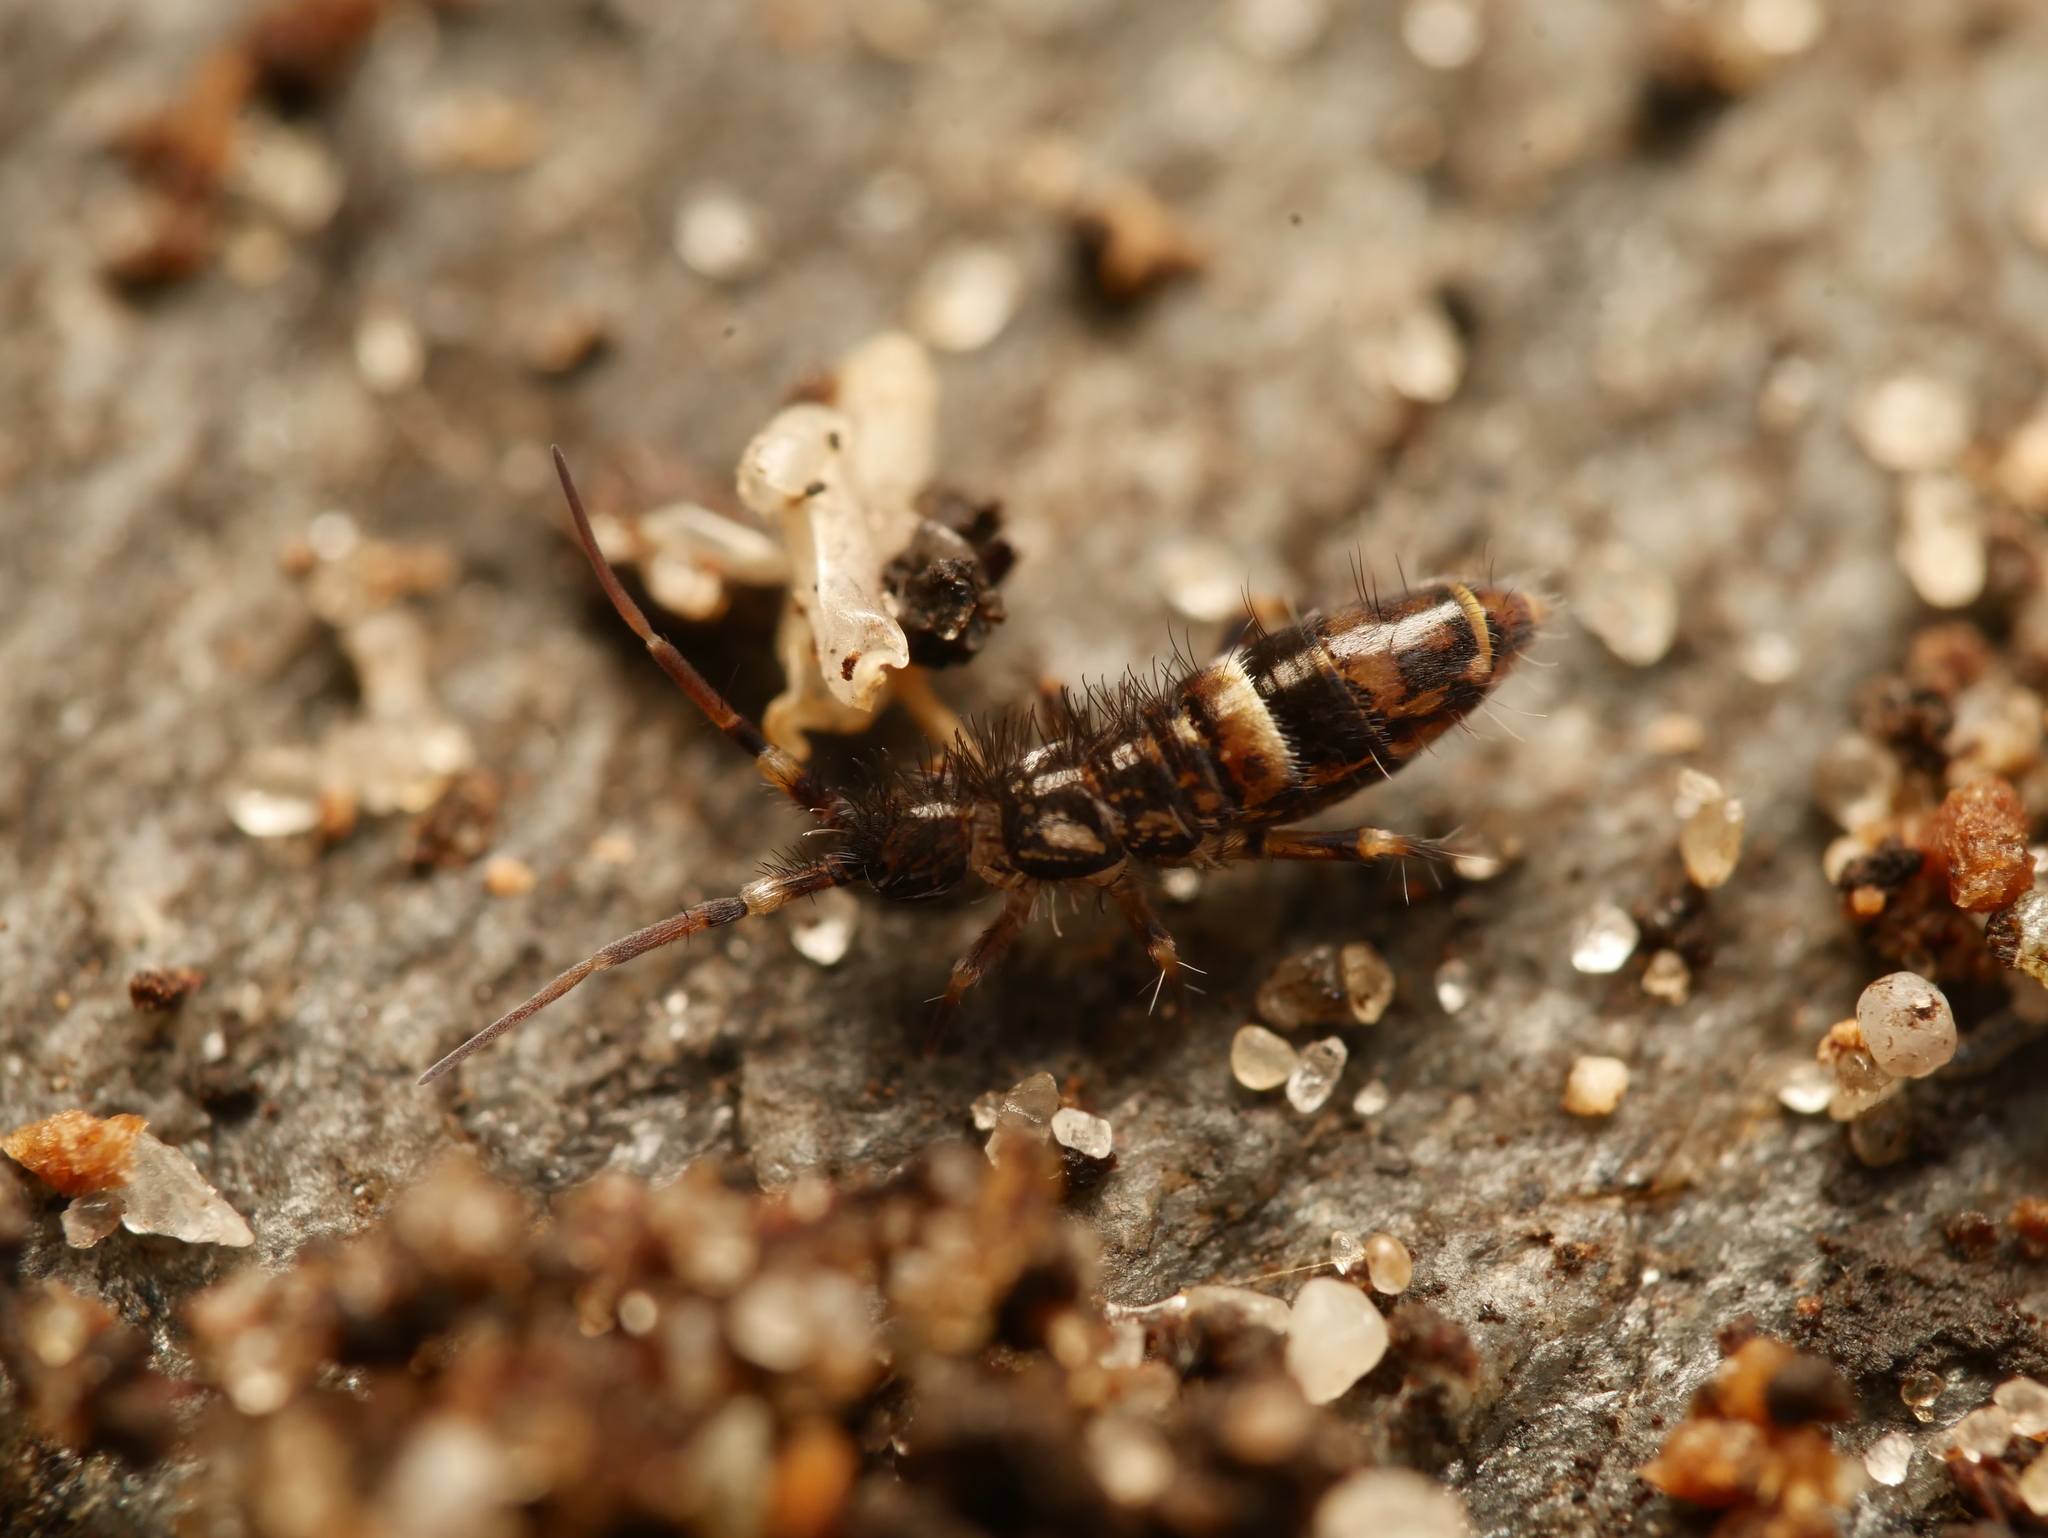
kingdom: Animalia
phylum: Arthropoda
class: Collembola
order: Entomobryomorpha
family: Orchesellidae
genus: Orchesella
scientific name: Orchesella cincta
